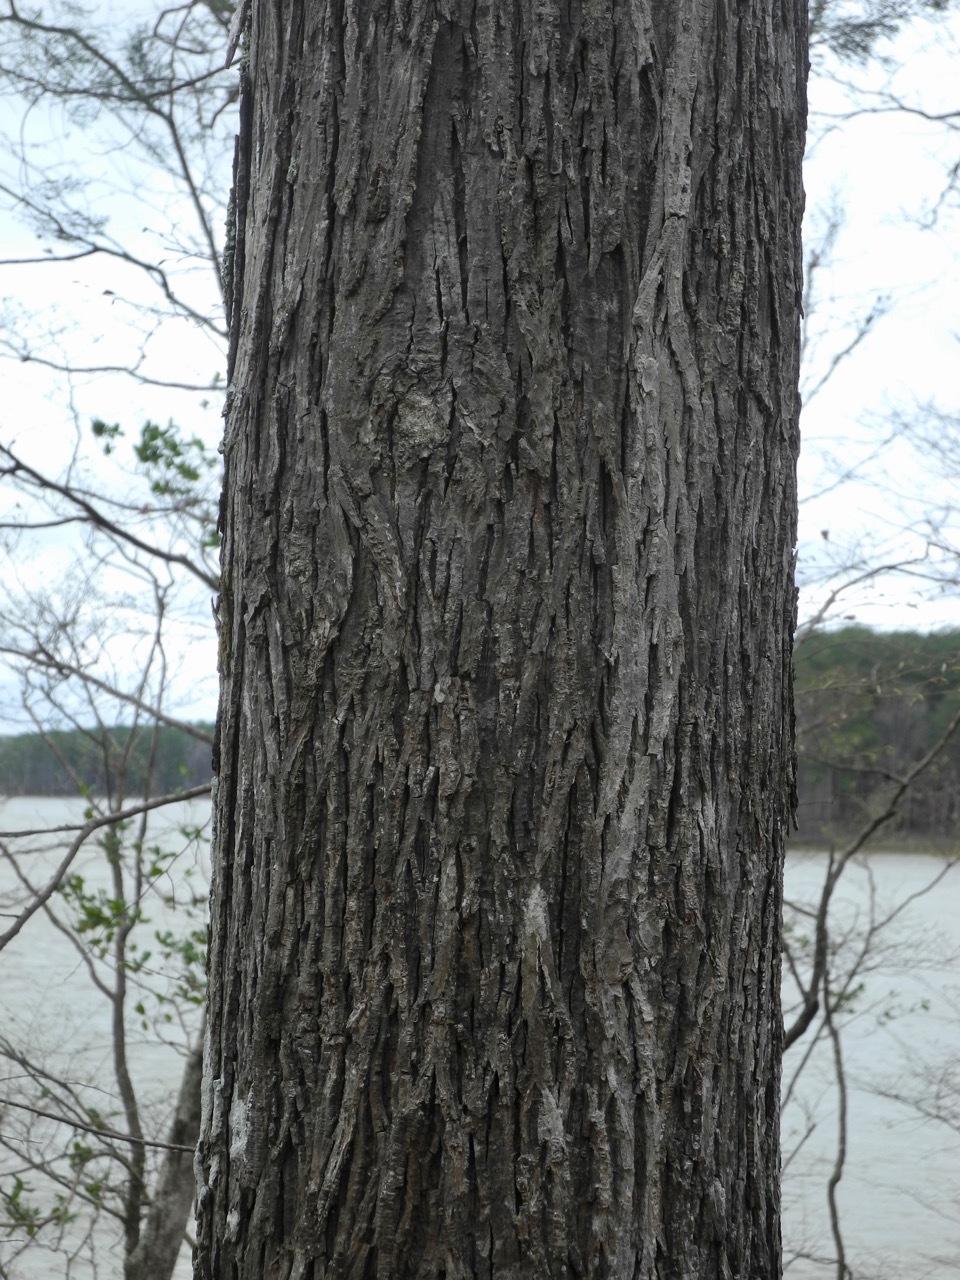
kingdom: Plantae
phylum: Tracheophyta
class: Magnoliopsida
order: Fagales
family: Juglandaceae
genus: Carya
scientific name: Carya ovata
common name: Shagbark hickory
